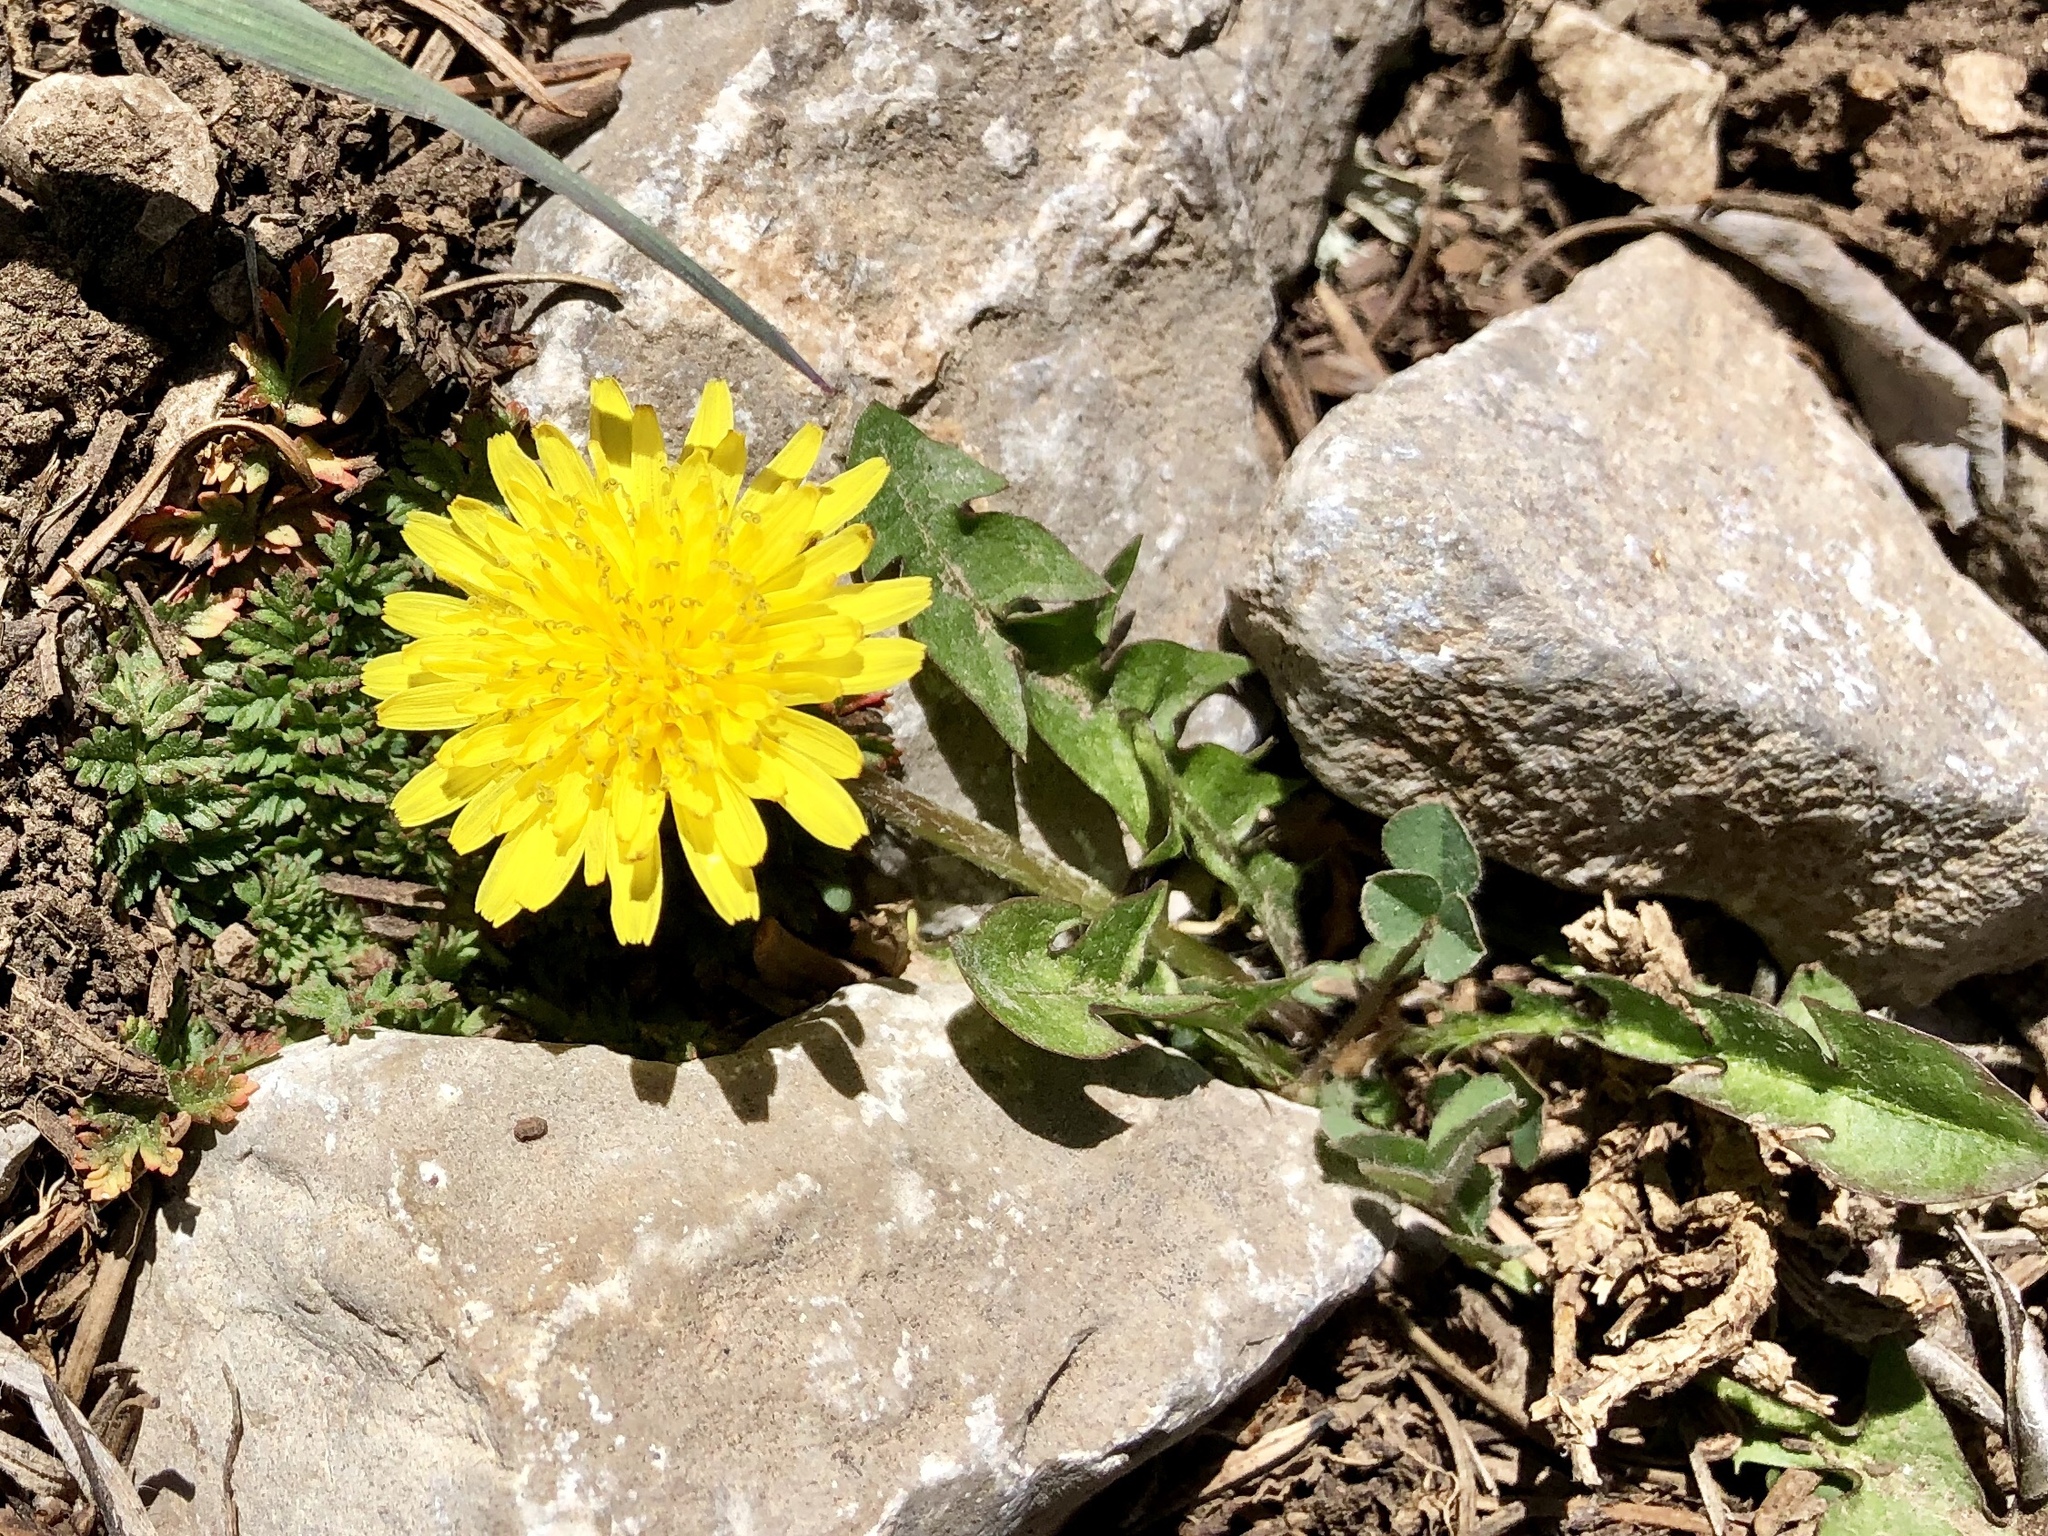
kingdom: Plantae
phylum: Tracheophyta
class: Magnoliopsida
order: Asterales
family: Asteraceae
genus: Taraxacum
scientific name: Taraxacum officinale
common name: Common dandelion
